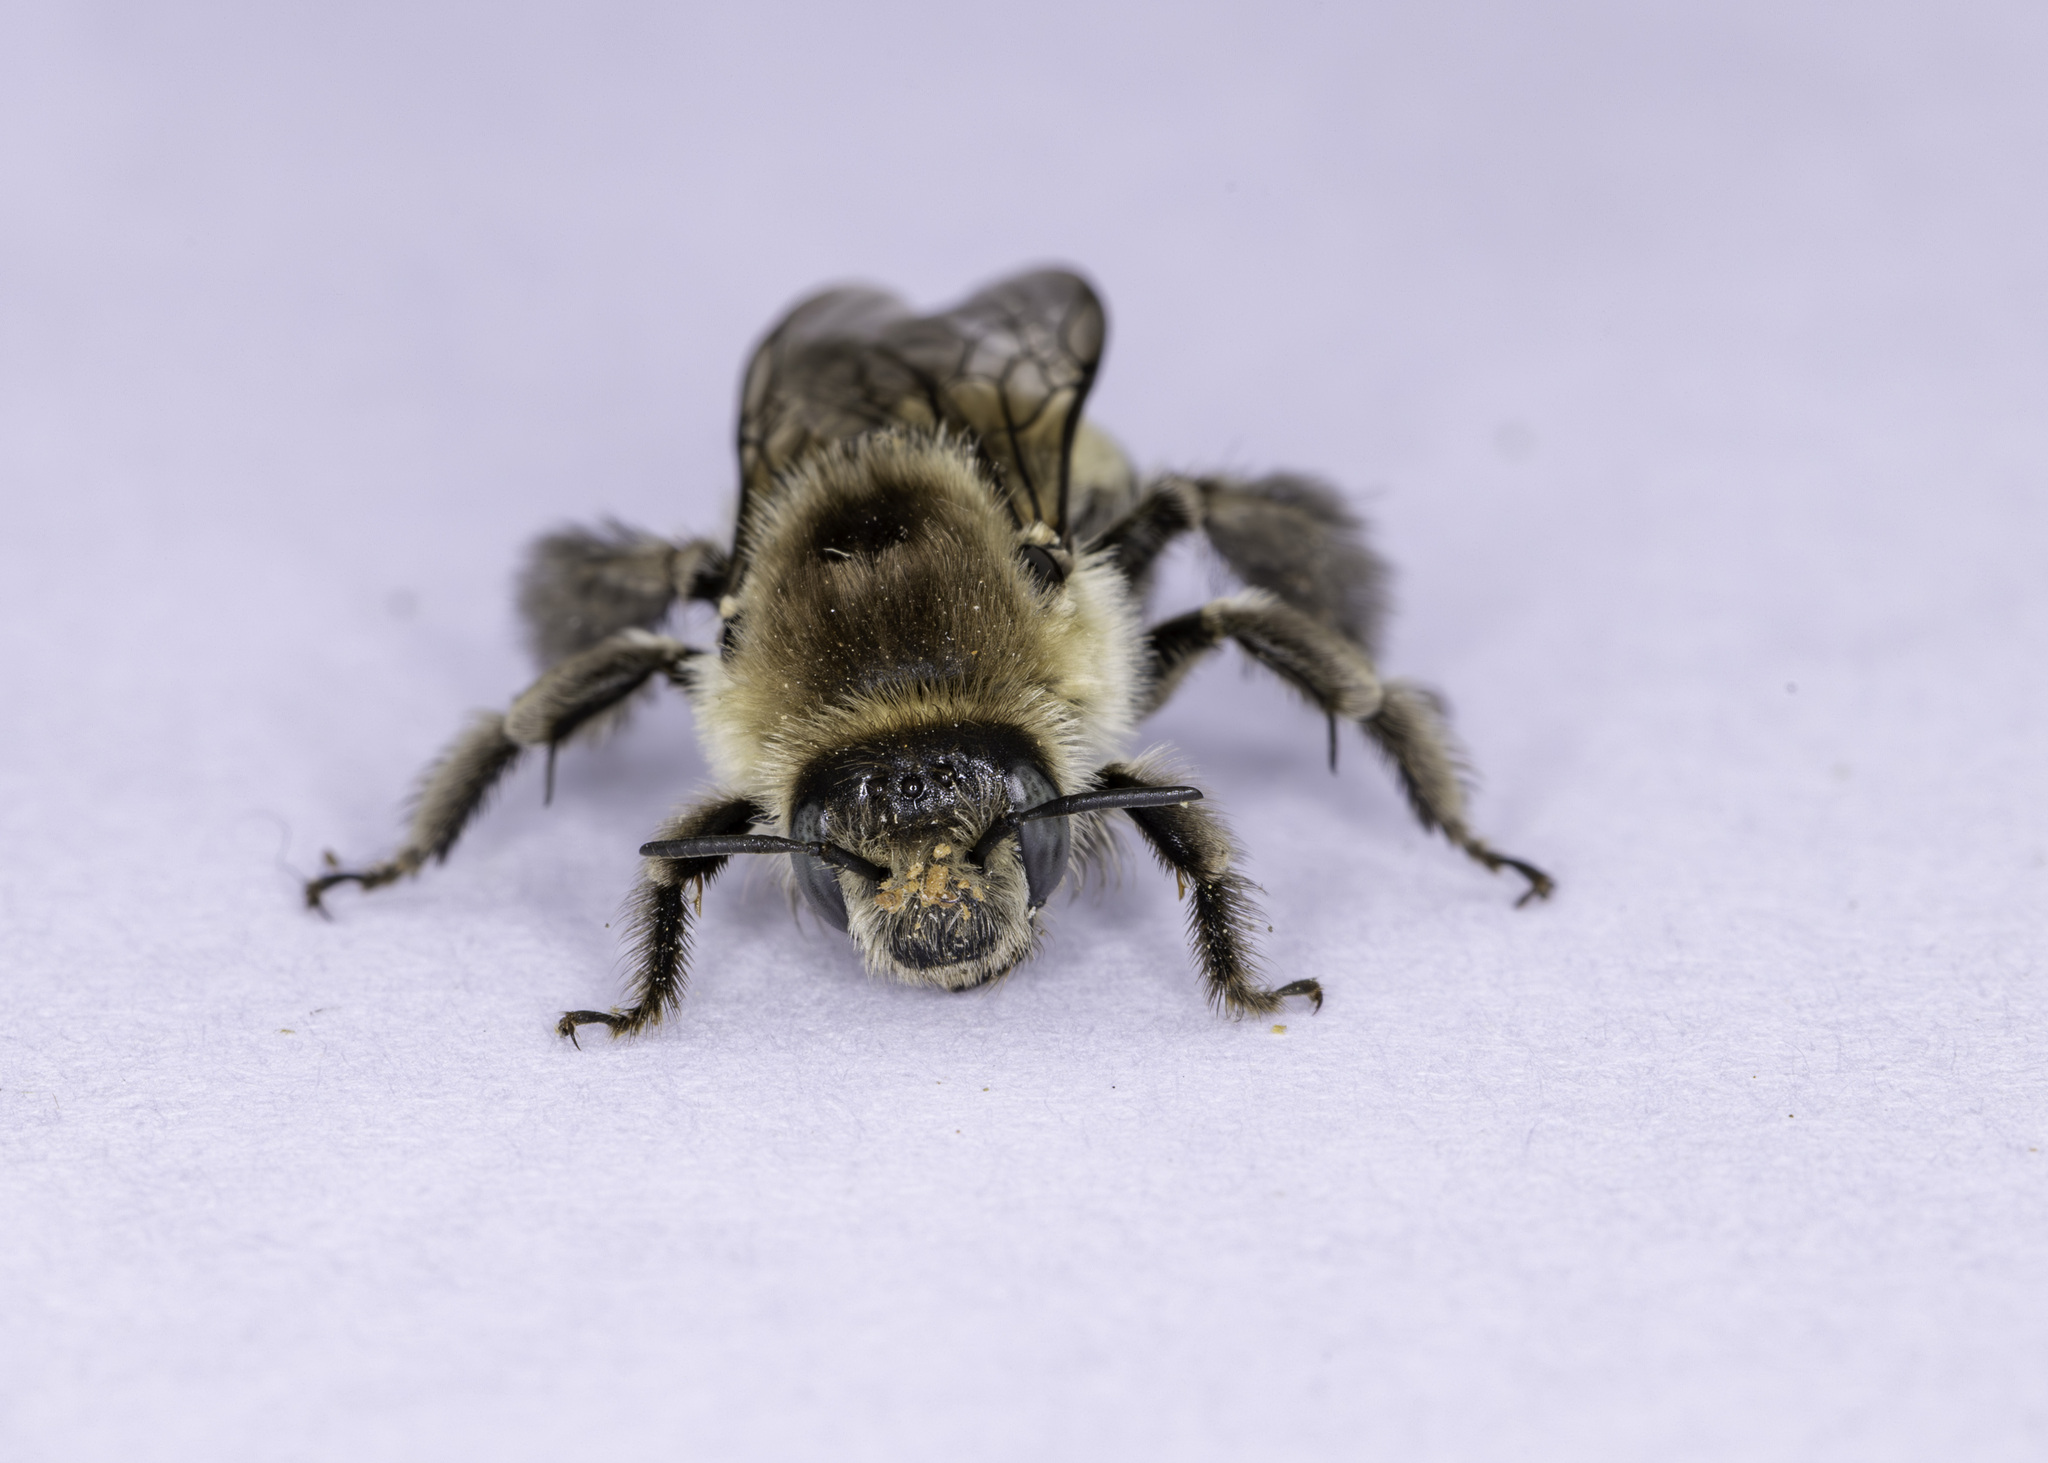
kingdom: Animalia
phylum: Arthropoda
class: Insecta
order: Hymenoptera
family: Apidae
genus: Diadasia
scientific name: Diadasia bituberculata
